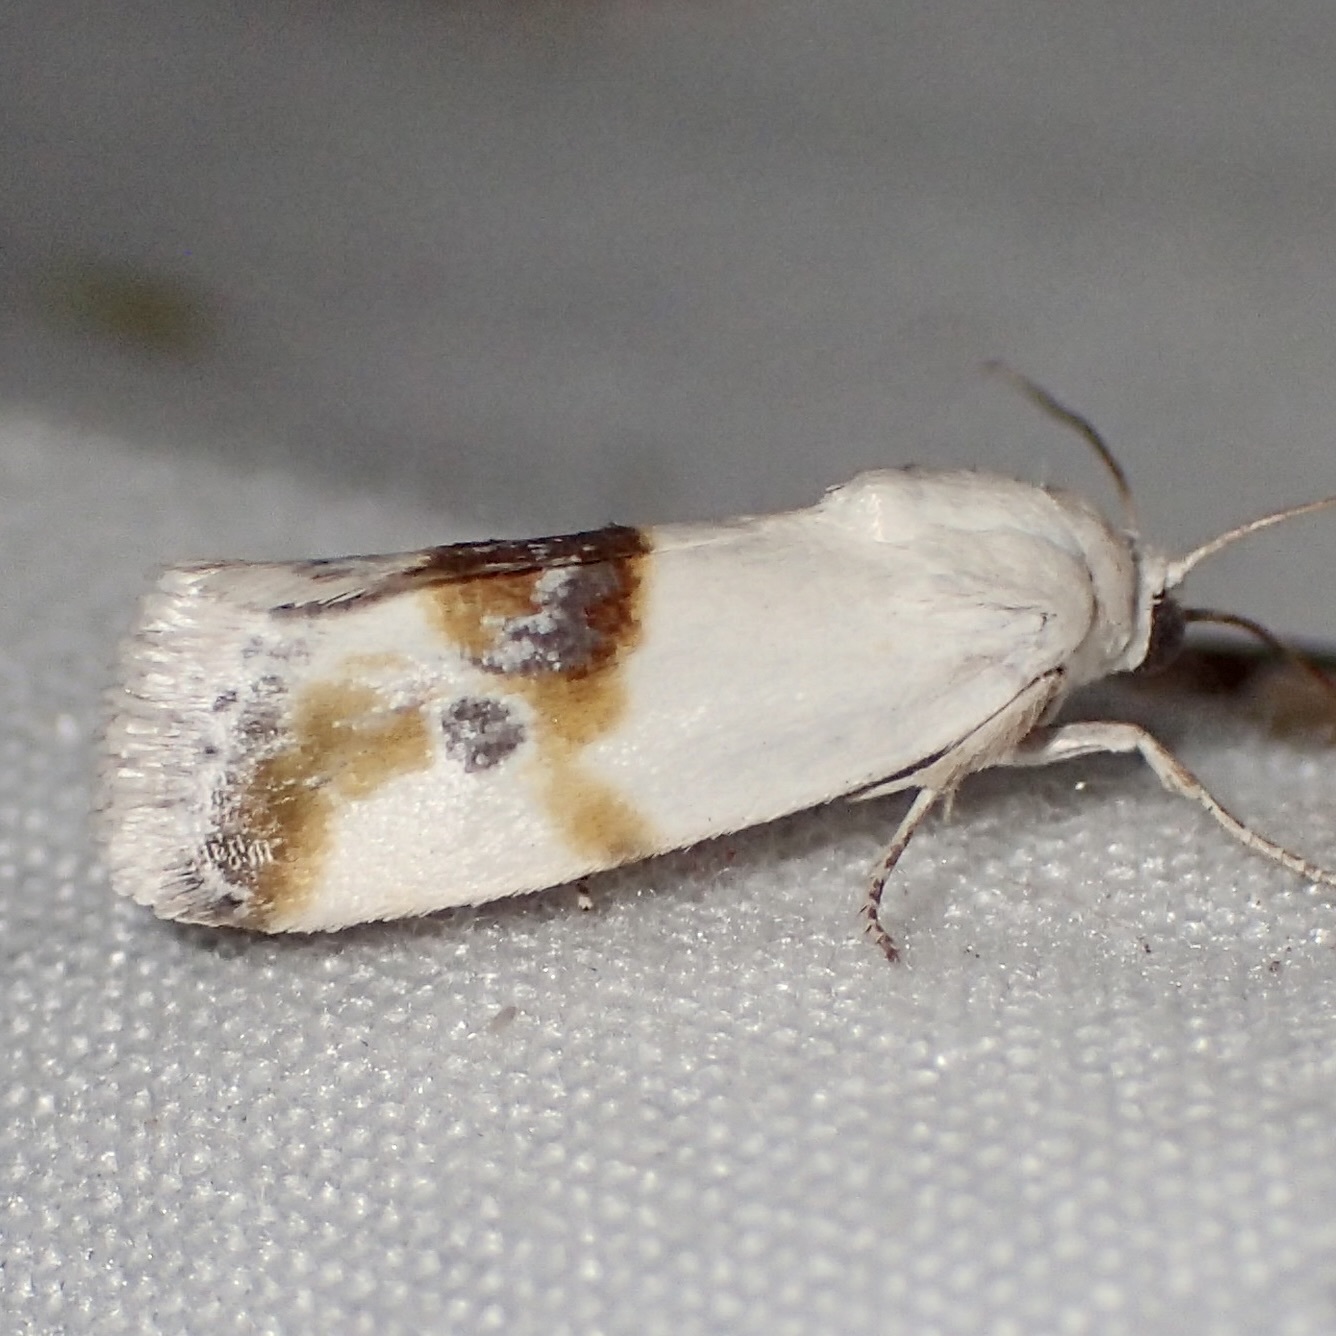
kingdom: Animalia
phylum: Arthropoda
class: Insecta
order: Lepidoptera
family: Noctuidae
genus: Acontia
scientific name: Acontia candefacta
